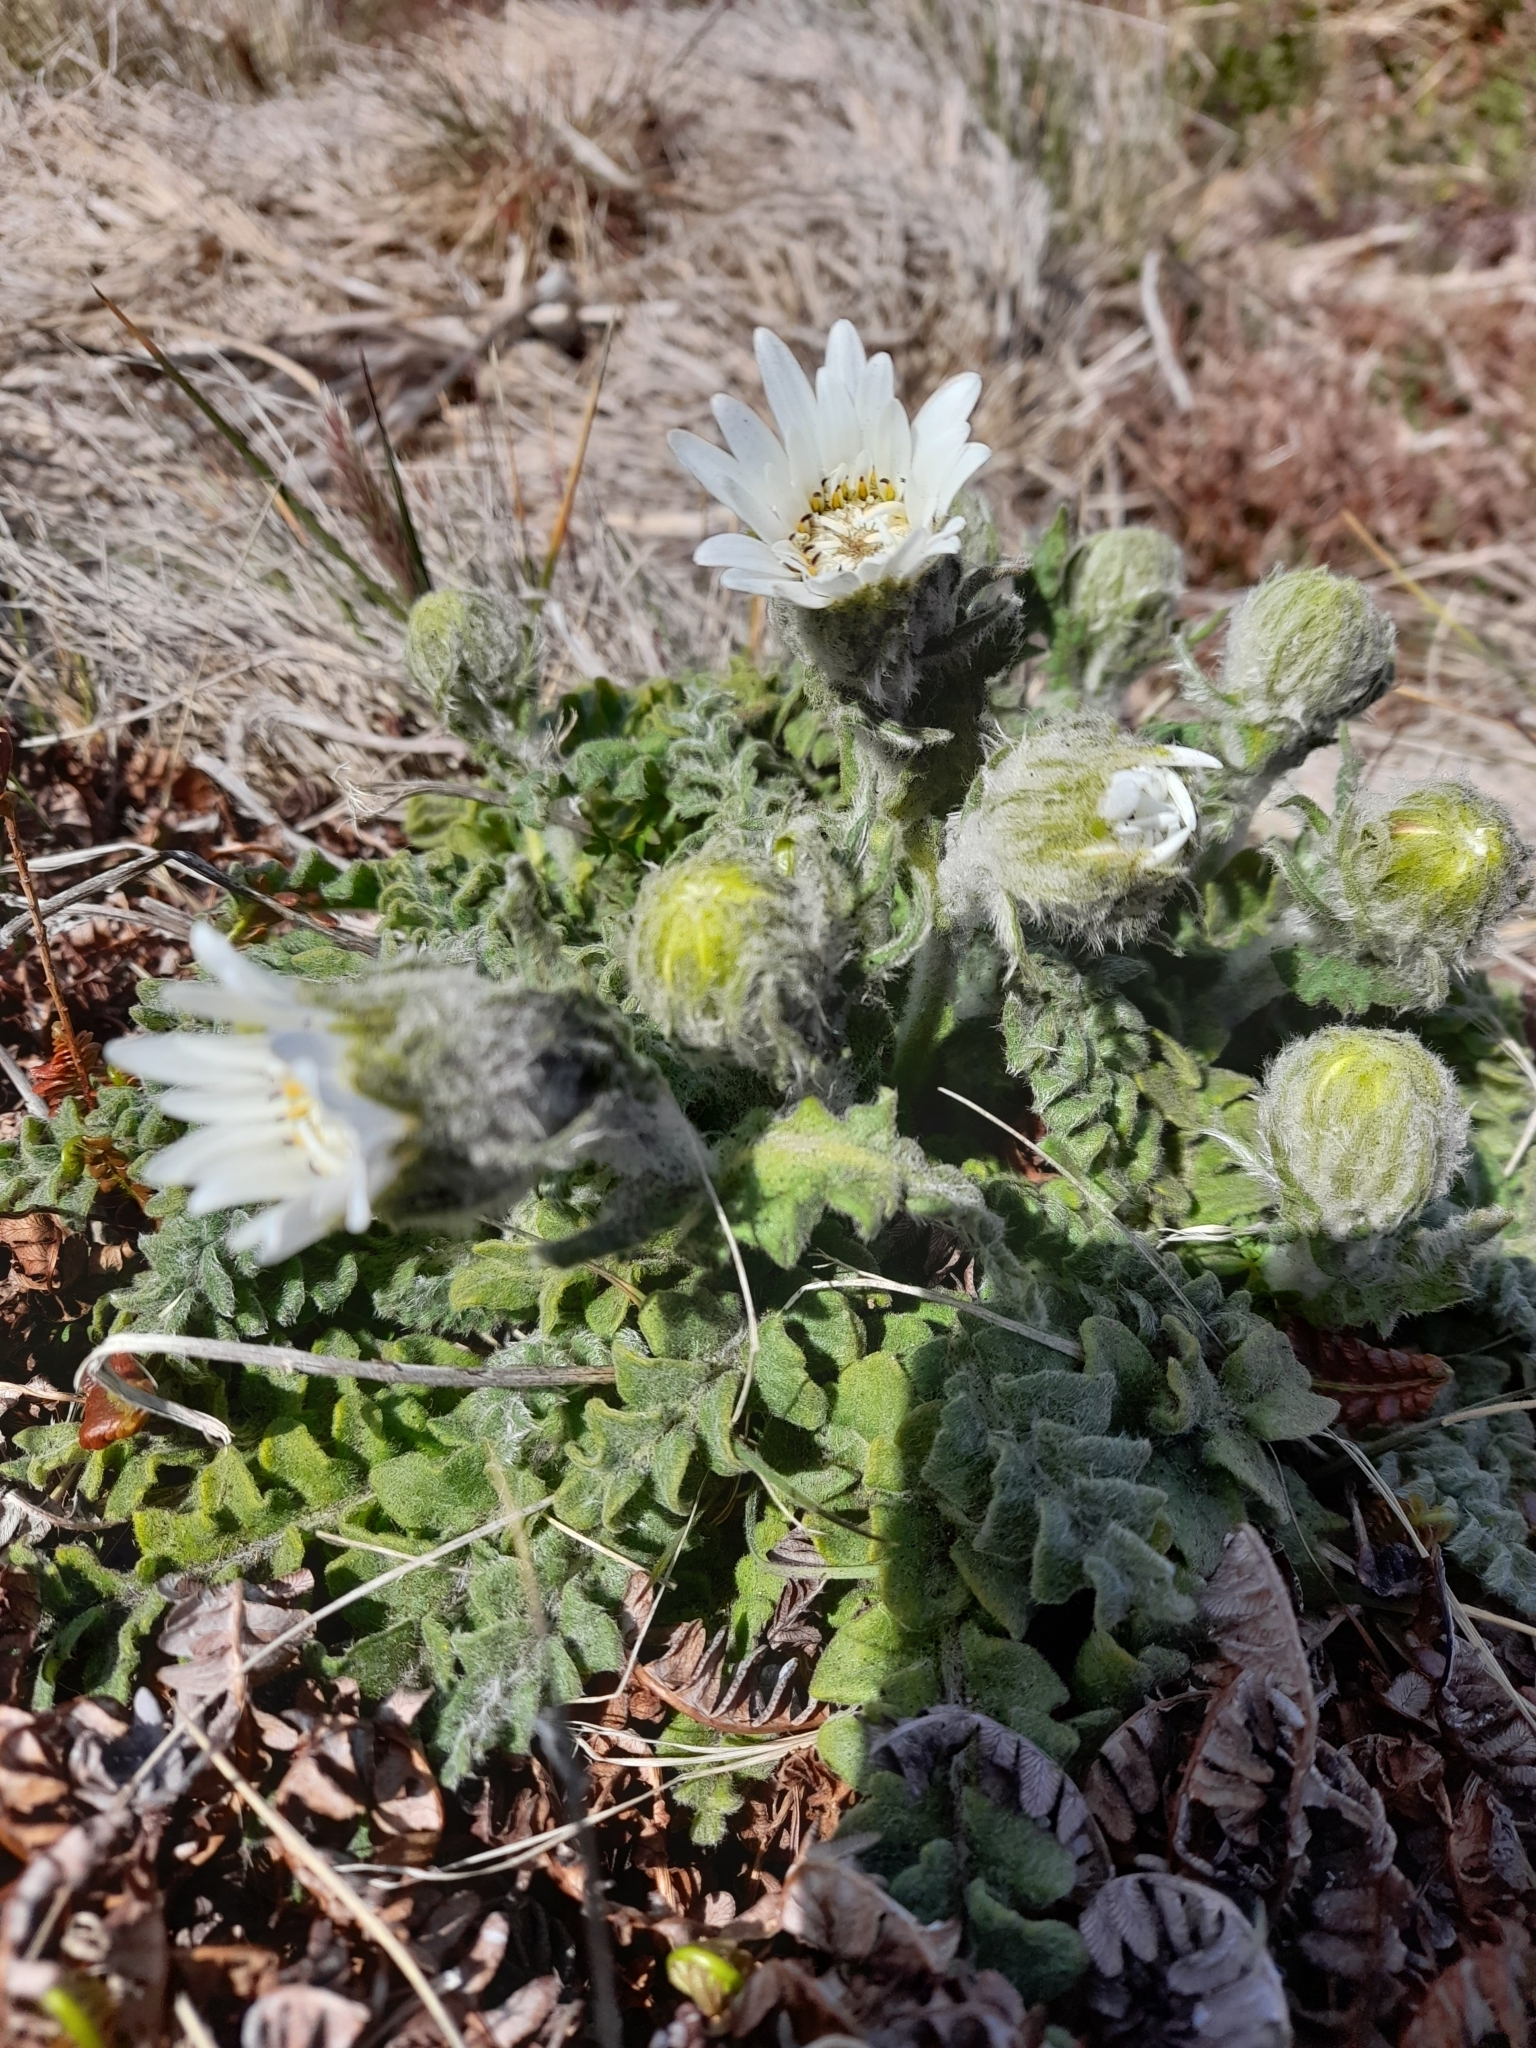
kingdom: Plantae
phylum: Tracheophyta
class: Magnoliopsida
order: Asterales
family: Asteraceae
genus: Leucheria
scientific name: Leucheria suaveolens
